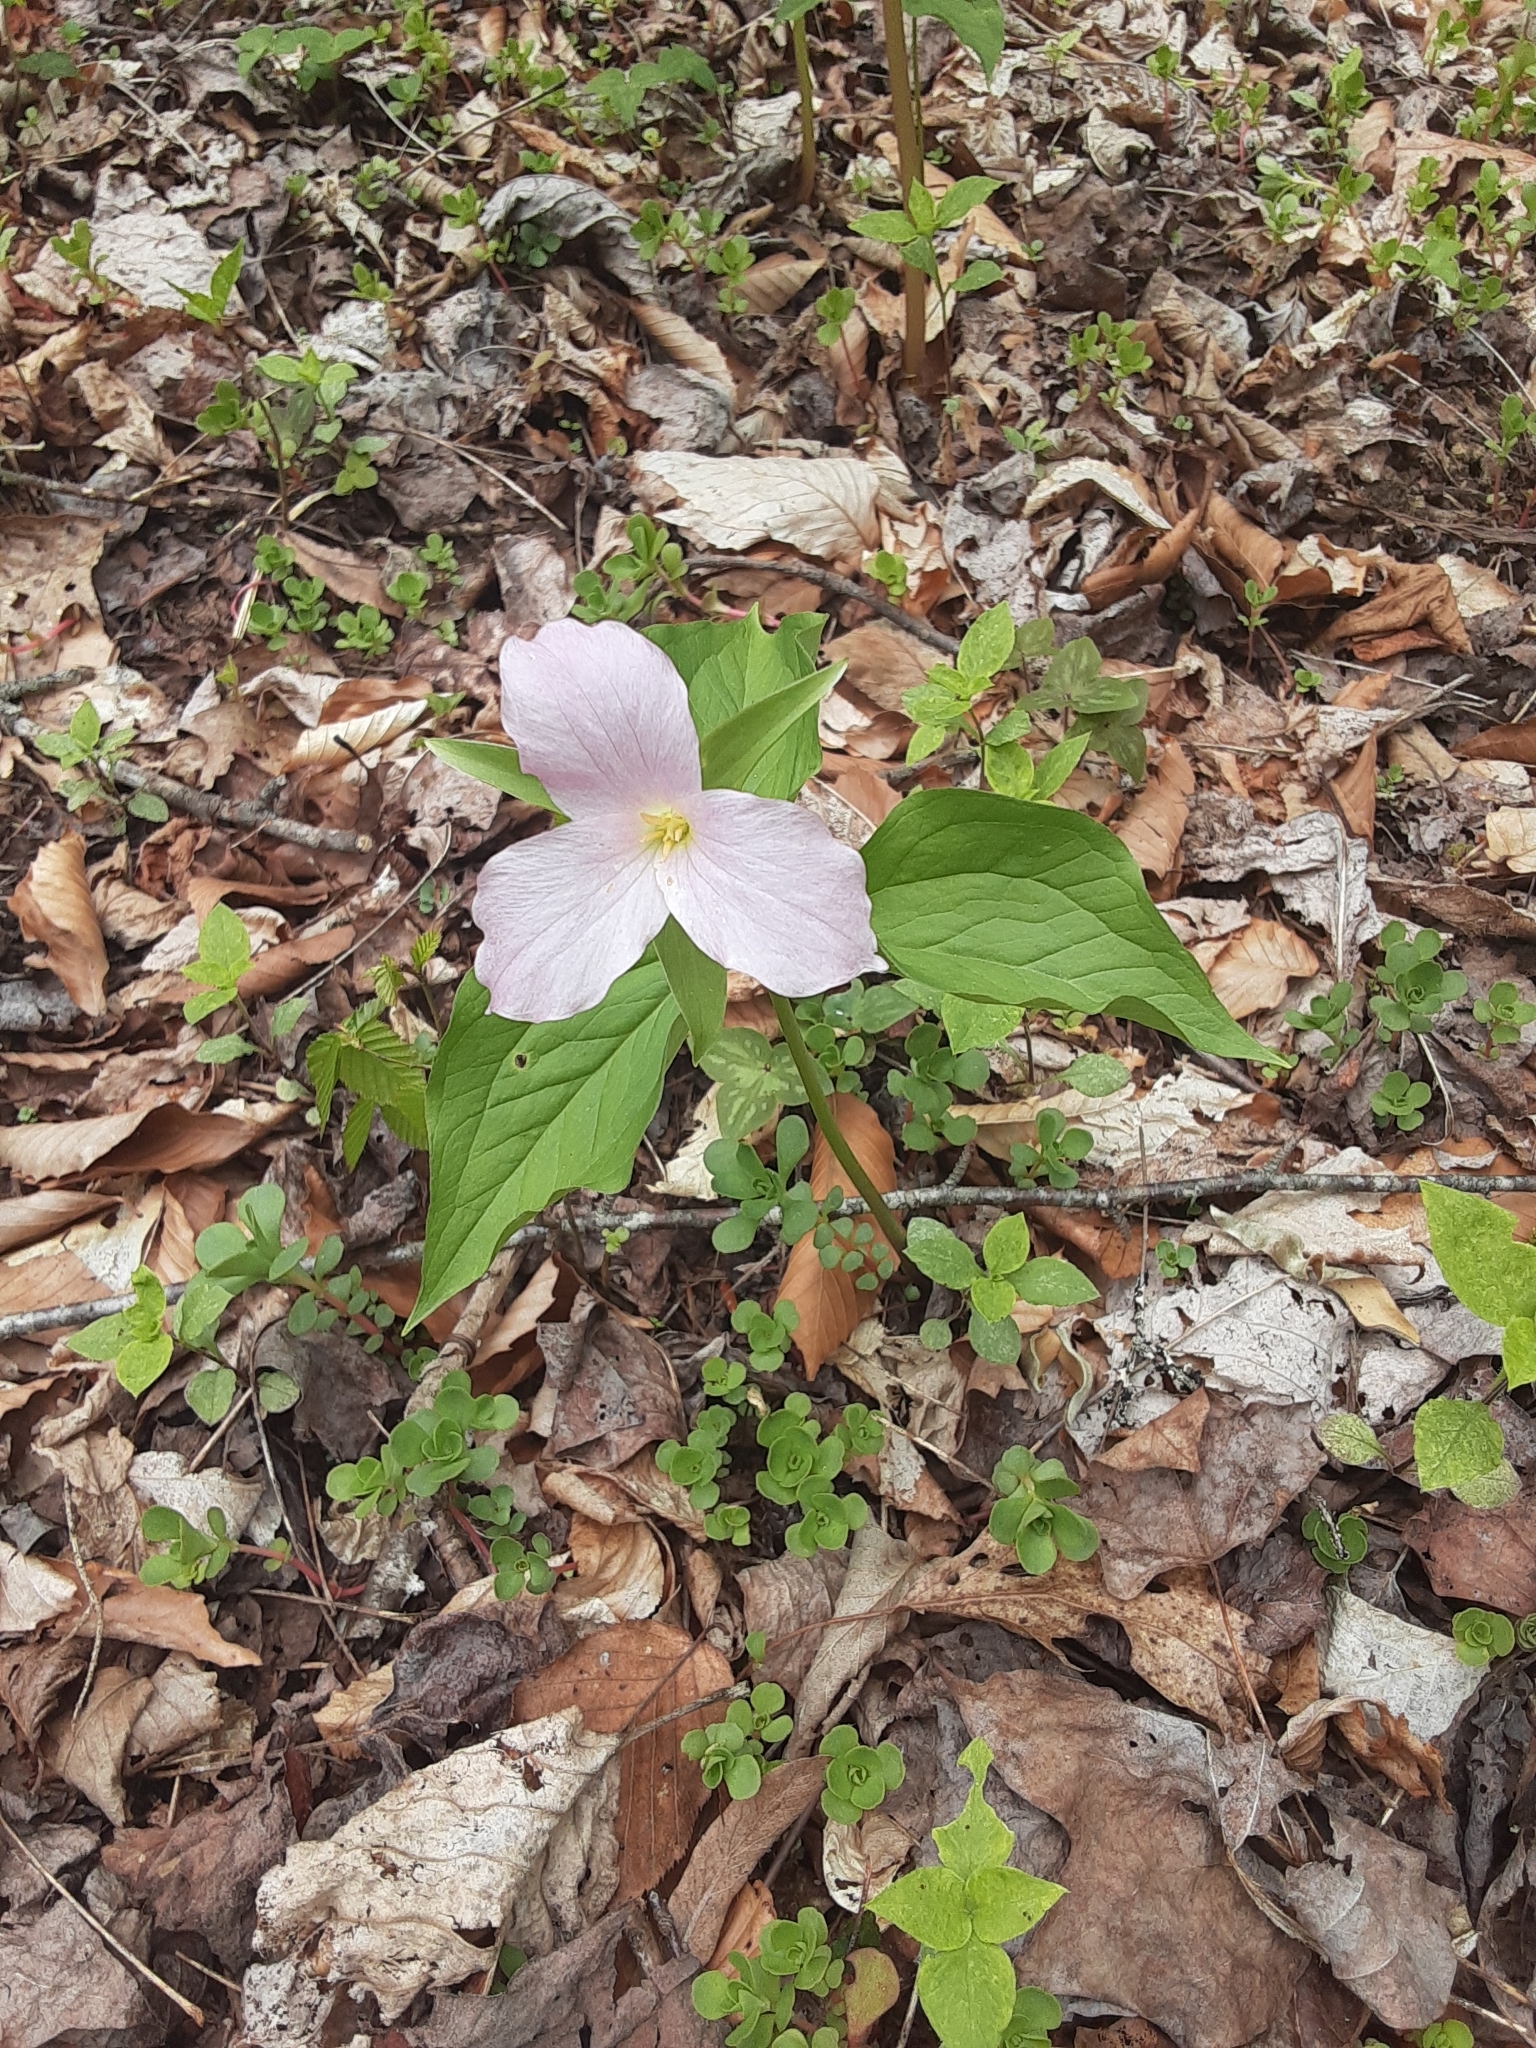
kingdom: Plantae
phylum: Tracheophyta
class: Liliopsida
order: Liliales
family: Melanthiaceae
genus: Trillium
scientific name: Trillium grandiflorum
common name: Great white trillium
